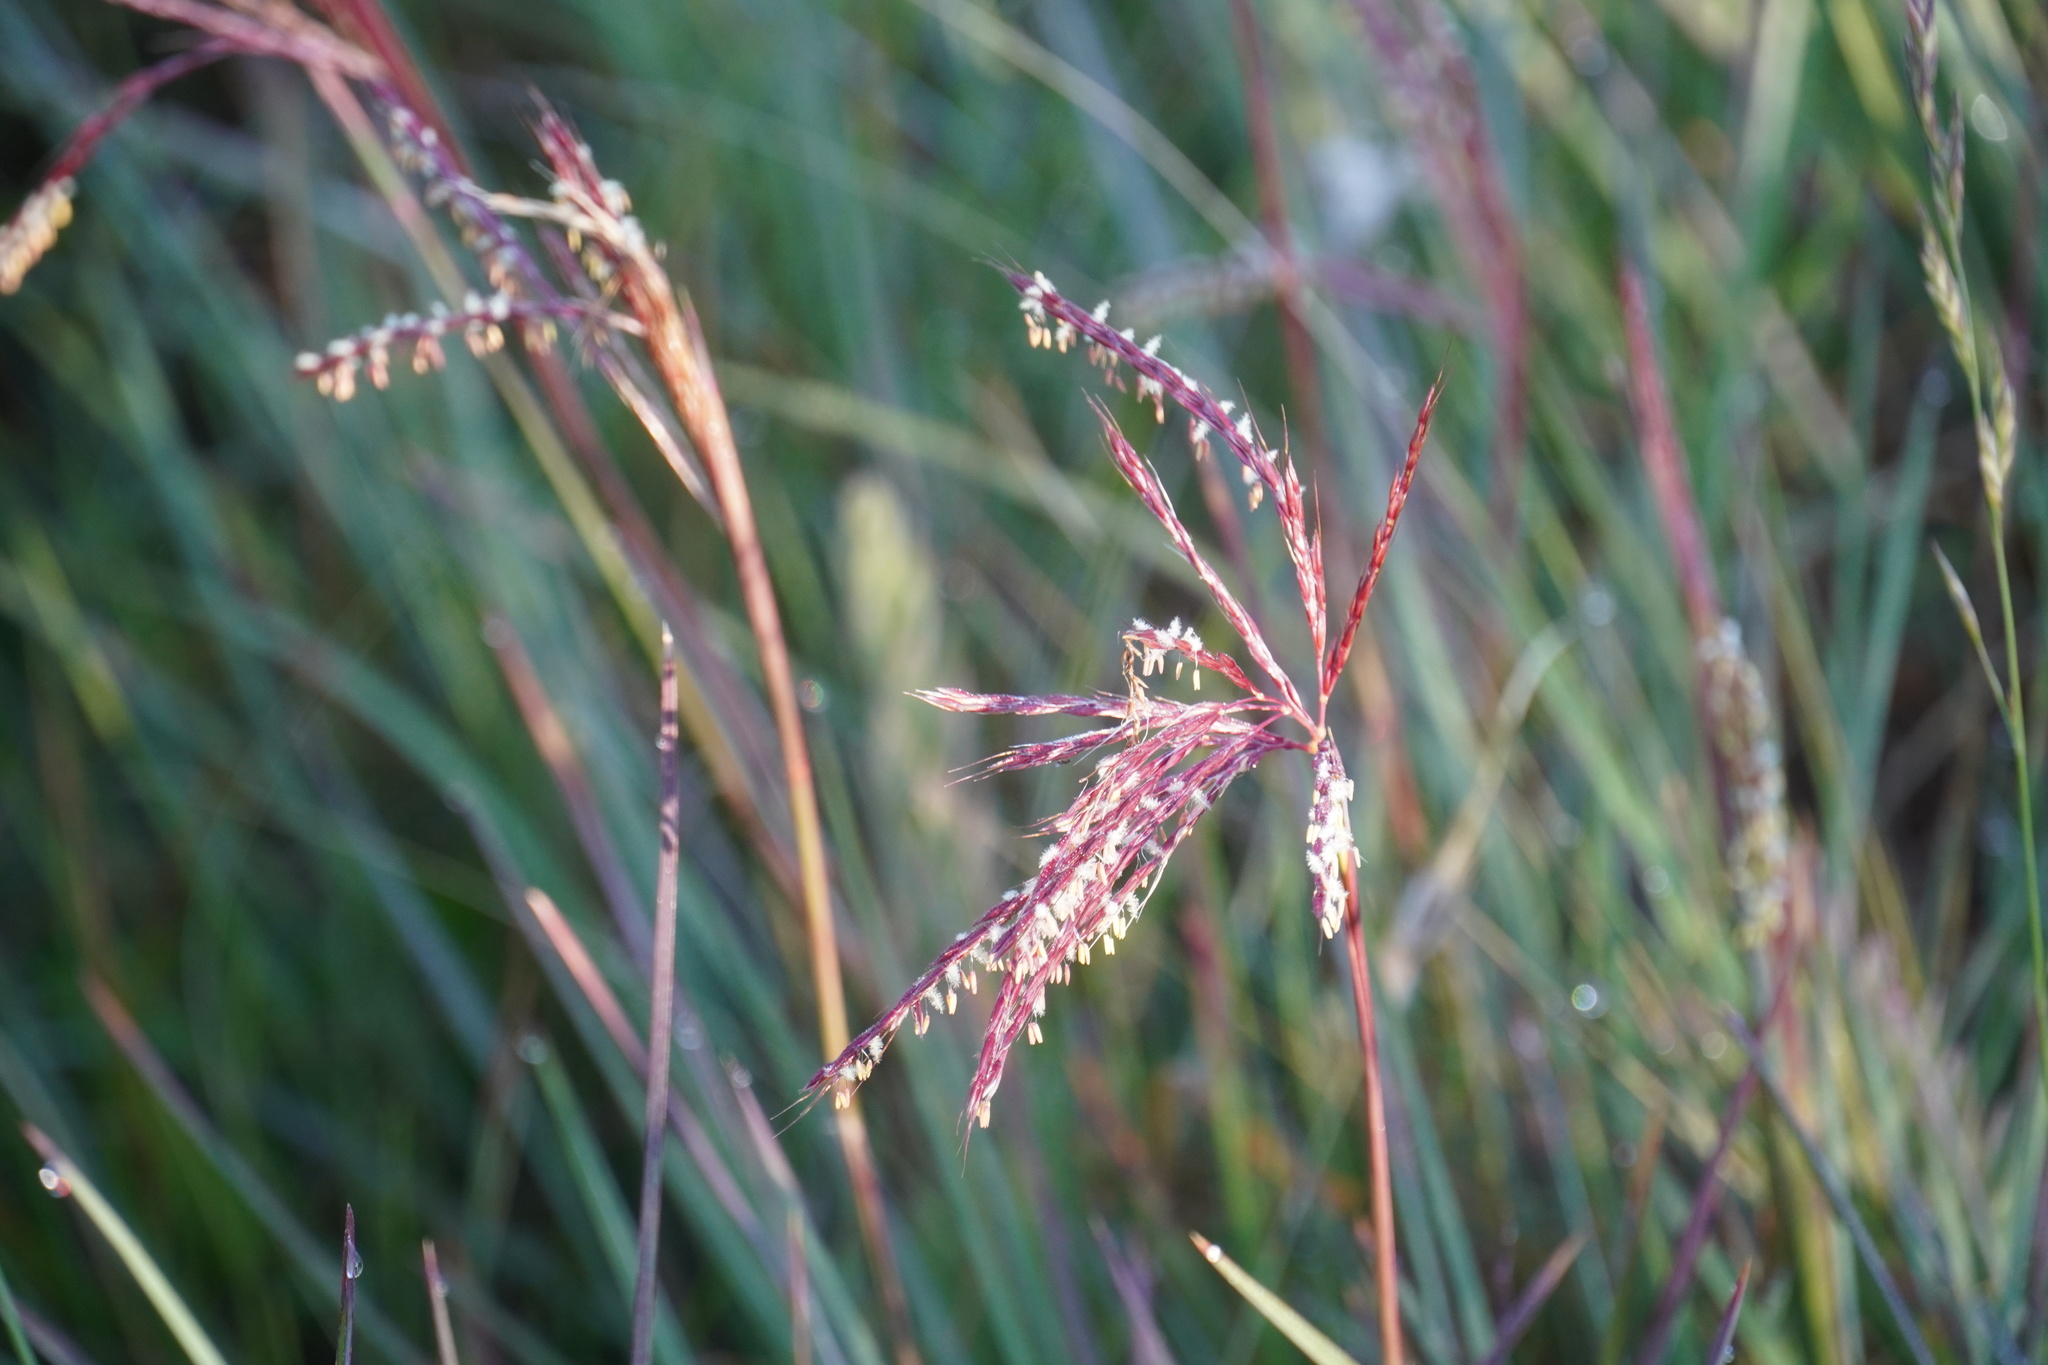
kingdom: Plantae
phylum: Tracheophyta
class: Liliopsida
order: Poales
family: Poaceae
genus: Andropogon
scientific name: Andropogon appendiculatus
